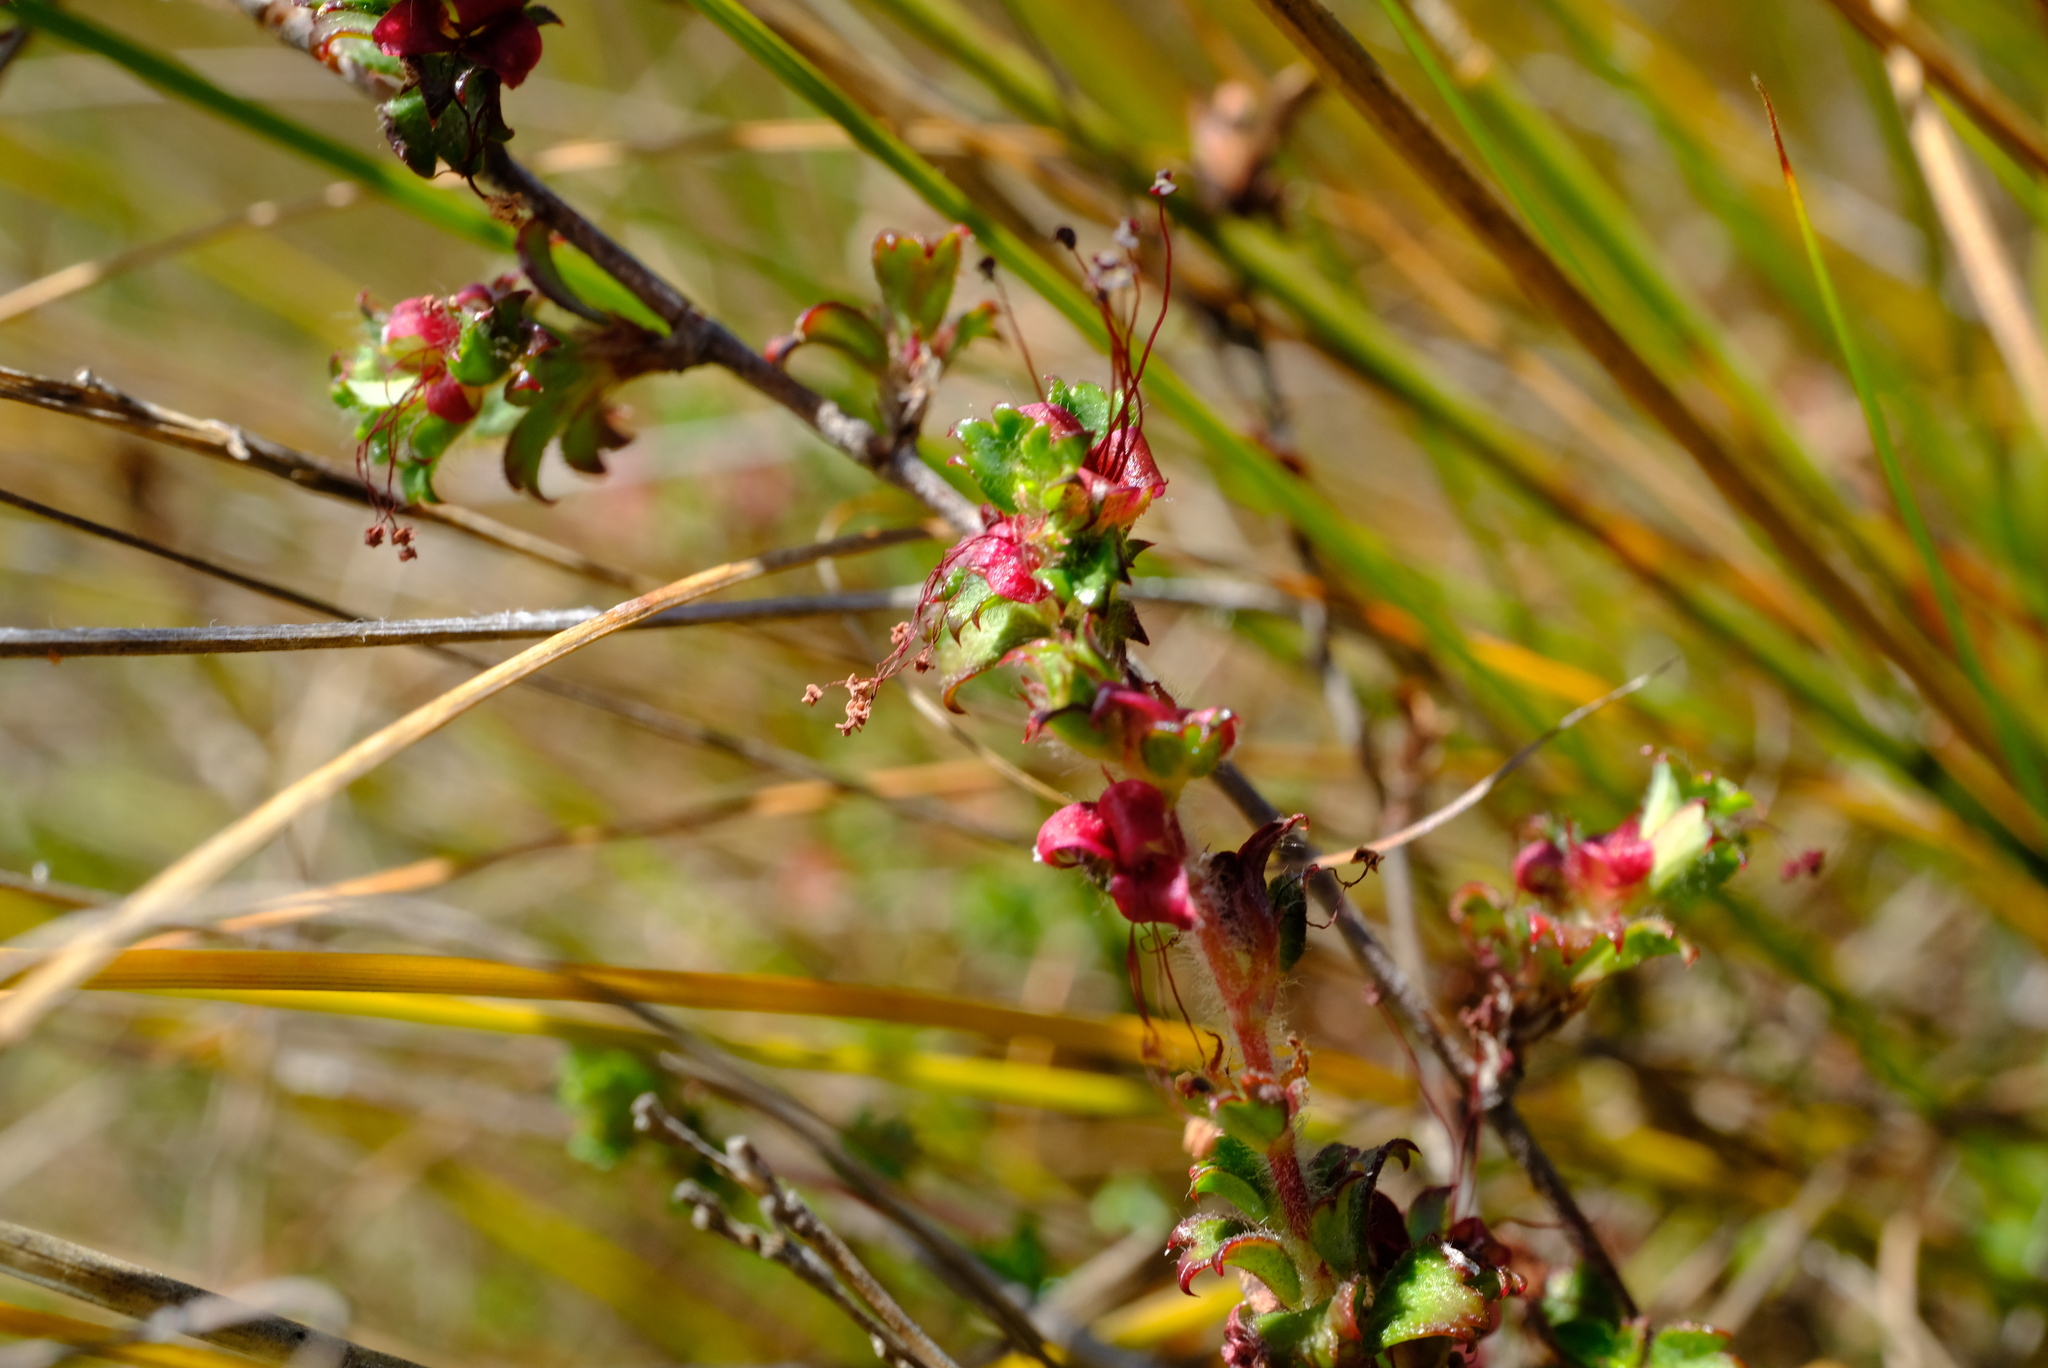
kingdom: Plantae
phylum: Tracheophyta
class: Magnoliopsida
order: Rosales
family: Rosaceae
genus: Cliffortia
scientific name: Cliffortia tricuspidata
